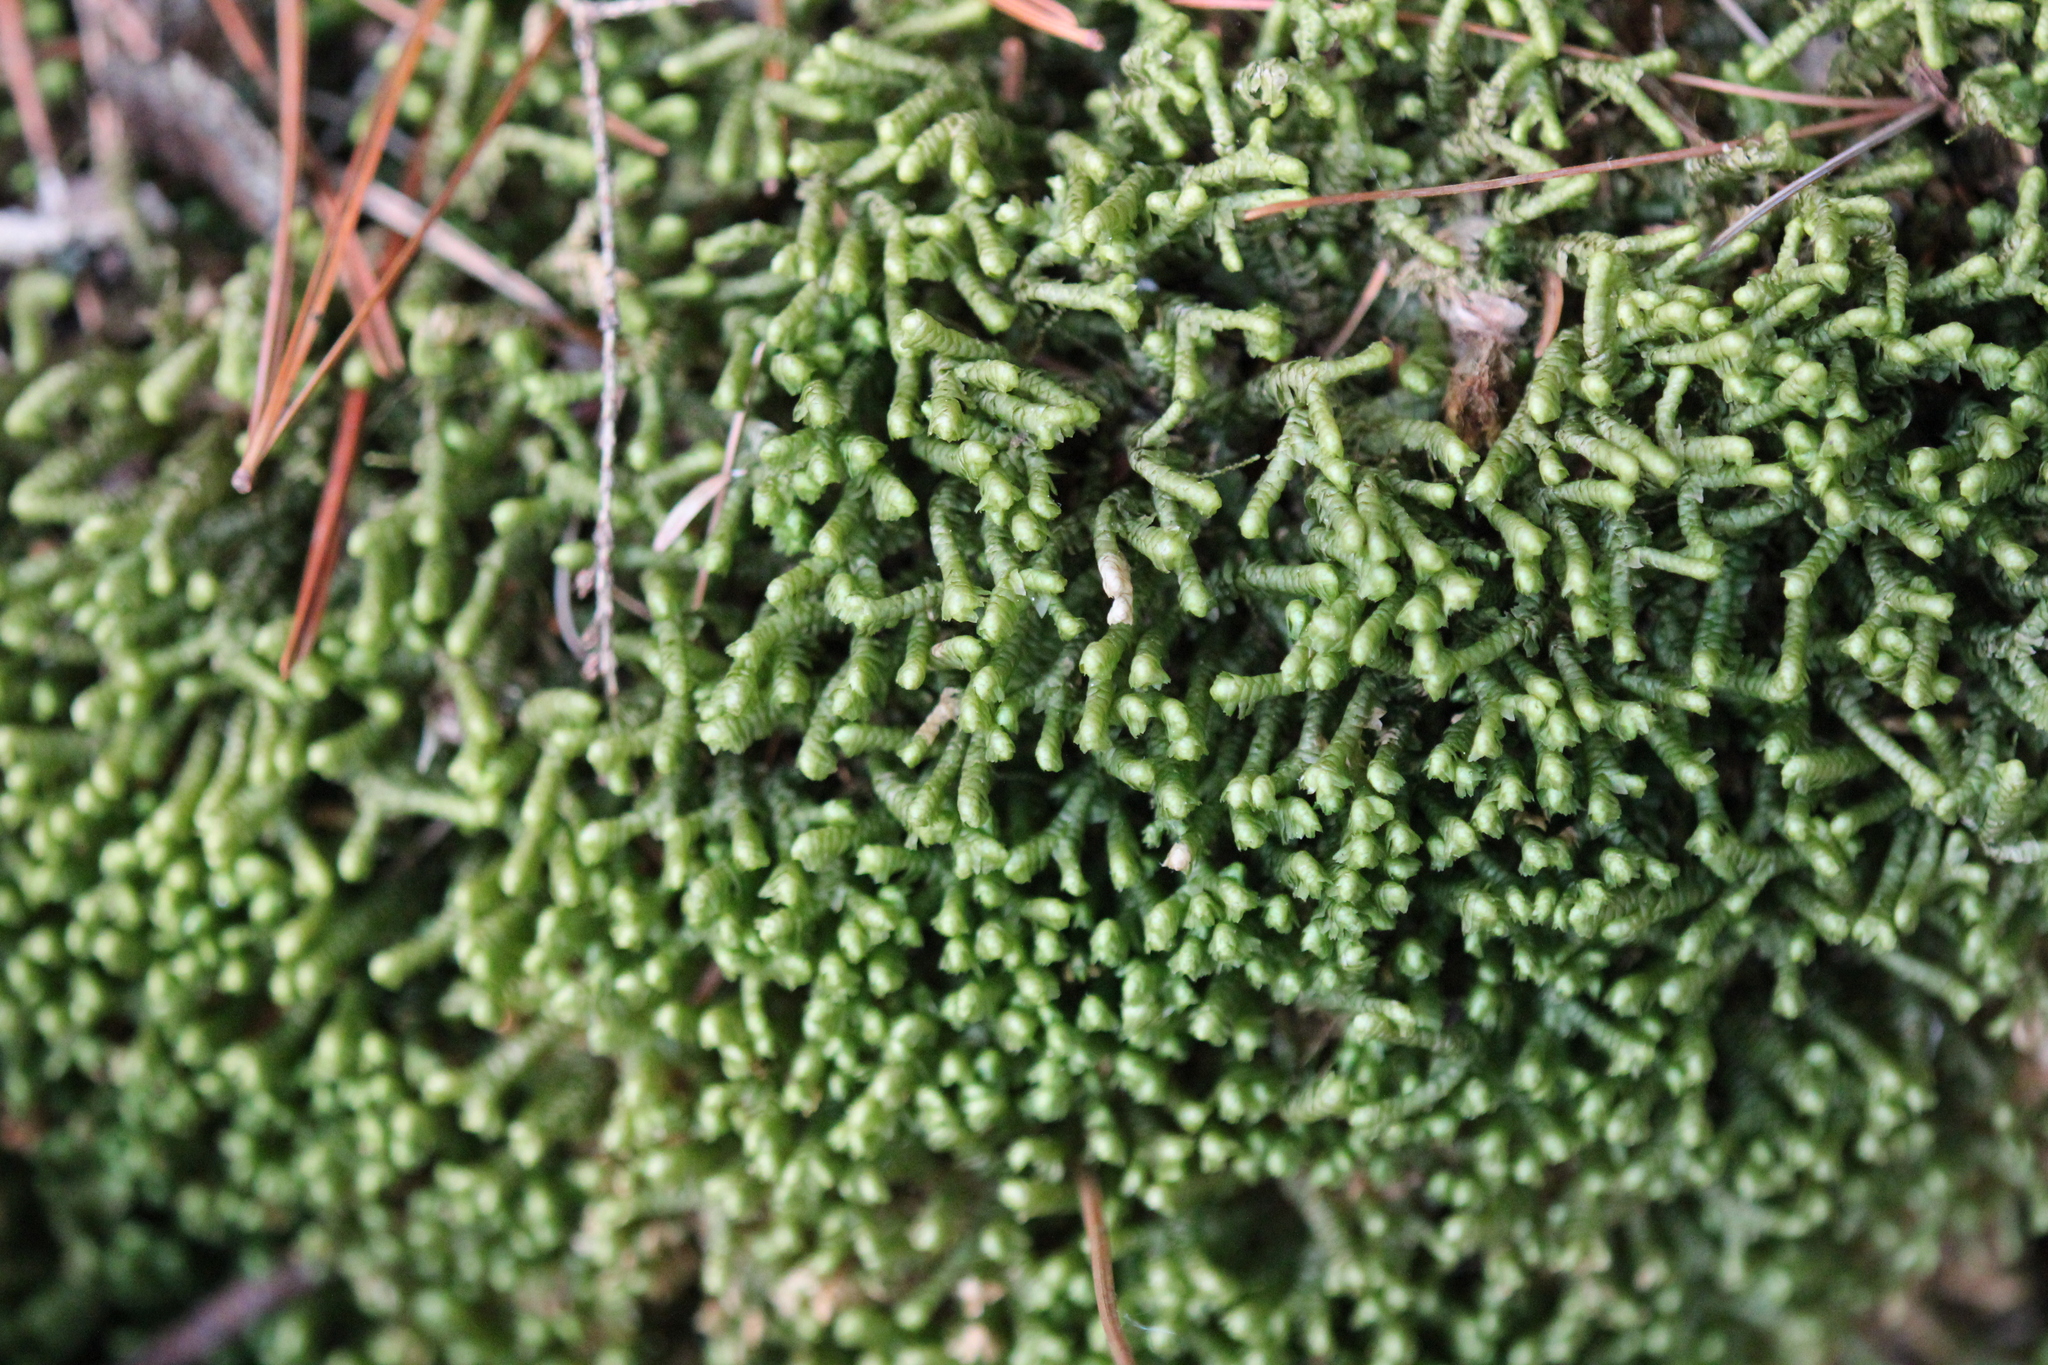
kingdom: Plantae
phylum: Marchantiophyta
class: Jungermanniopsida
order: Jungermanniales
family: Lepidoziaceae
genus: Bazzania
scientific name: Bazzania trilobata
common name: Three-lobed whipwort
